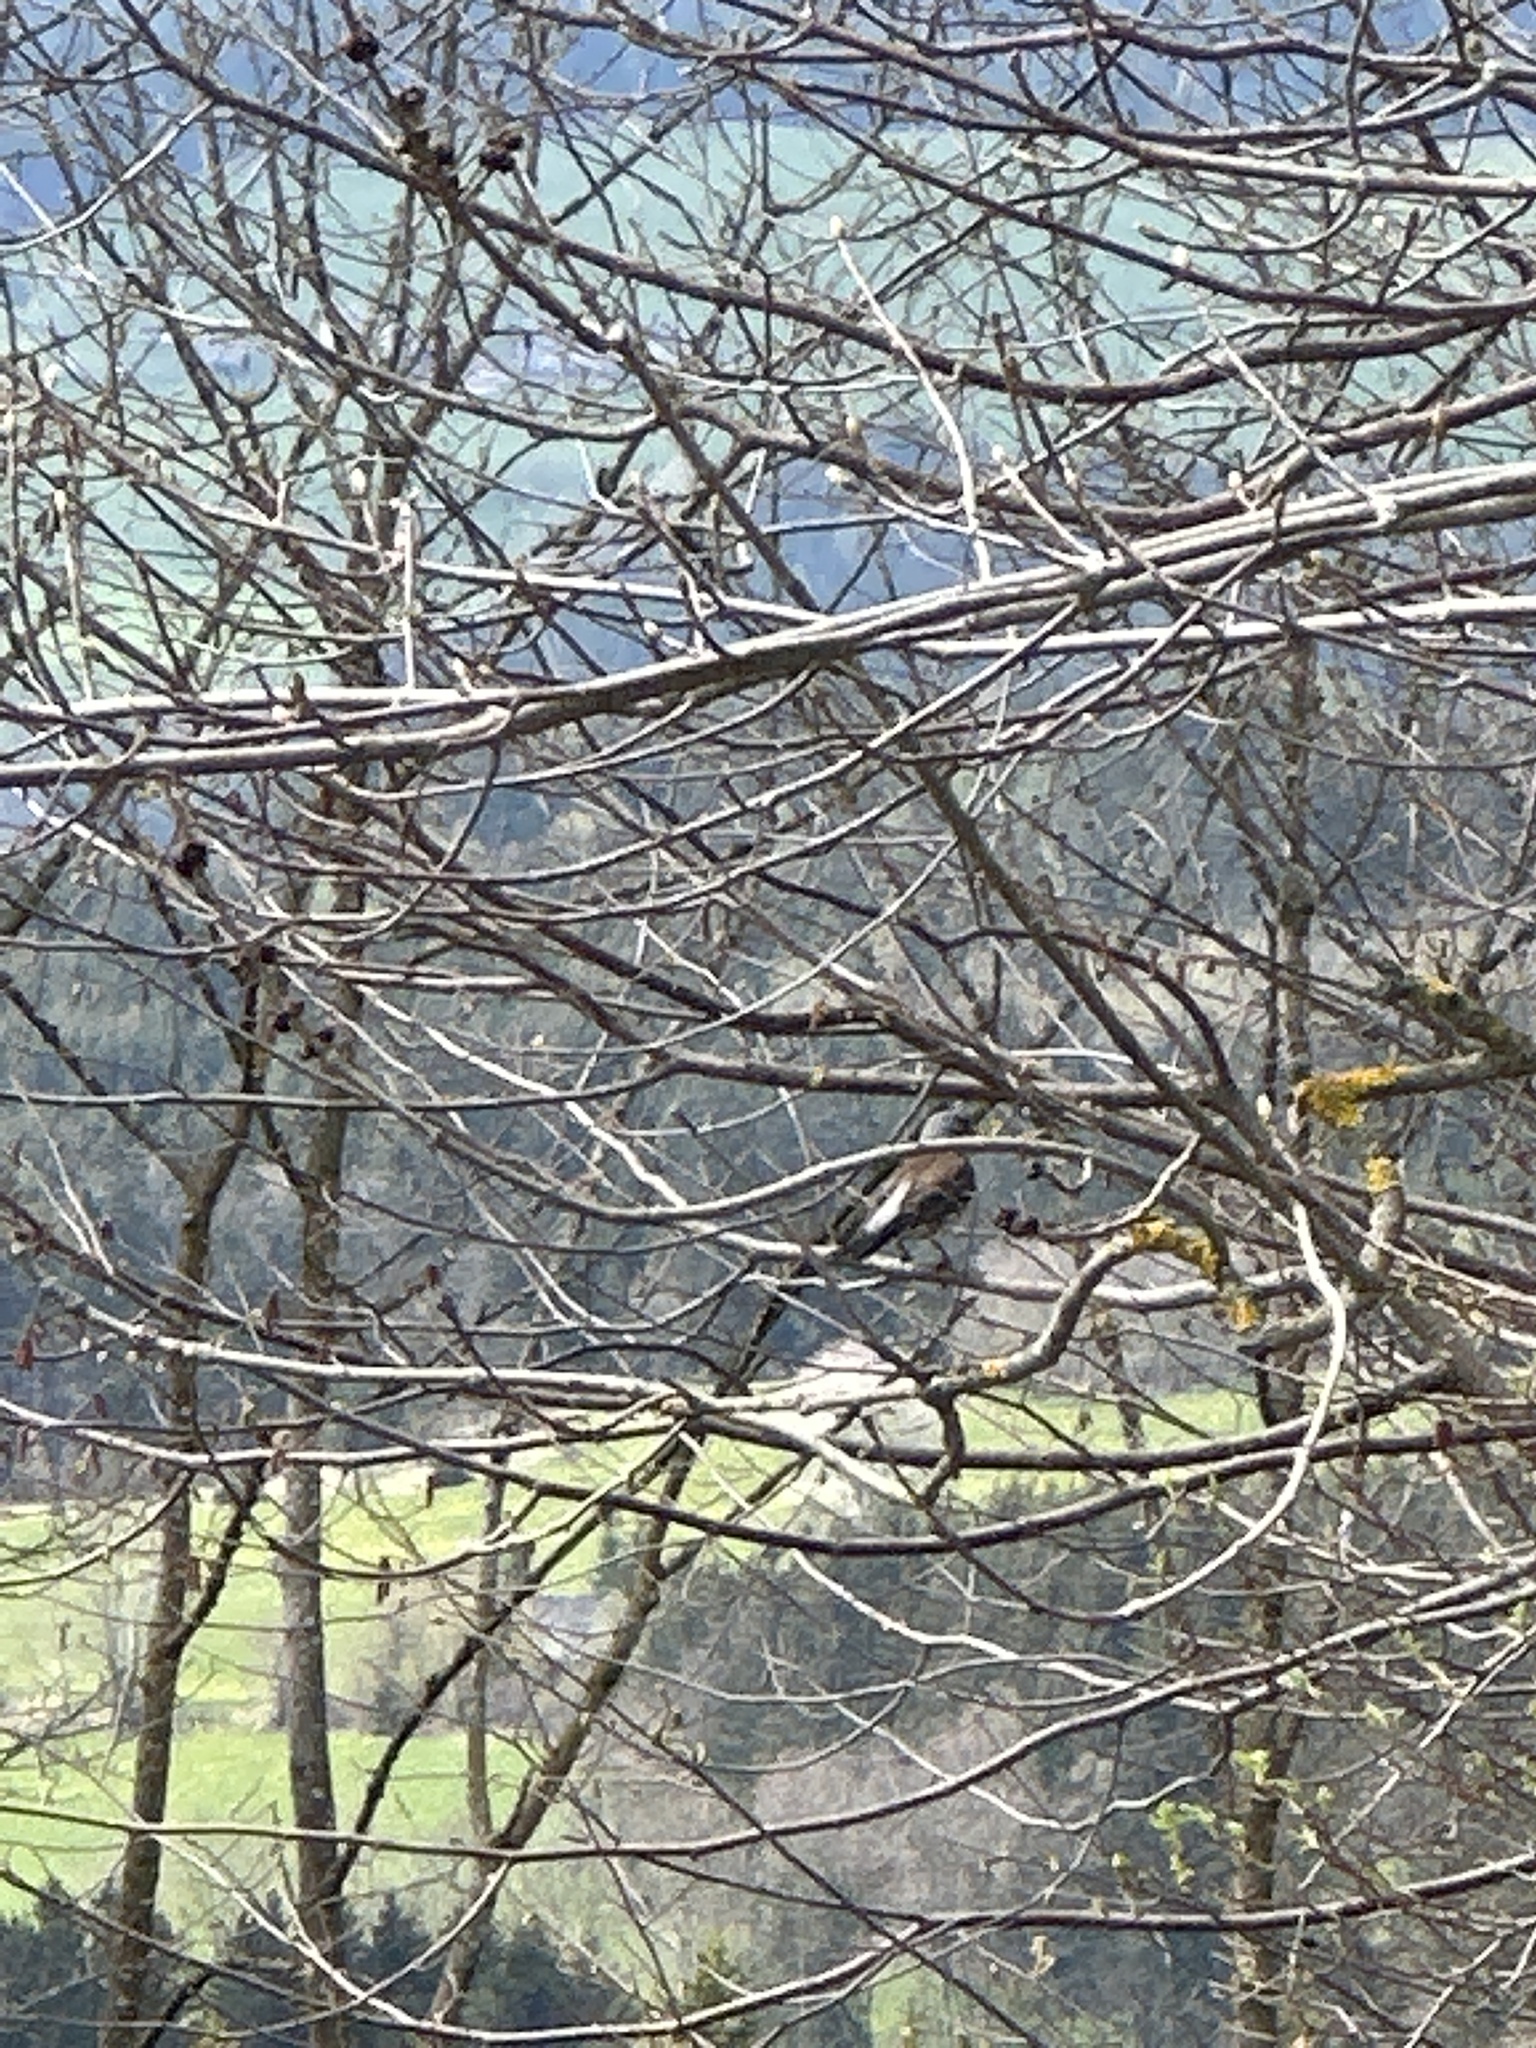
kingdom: Animalia
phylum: Chordata
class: Aves
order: Passeriformes
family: Turdidae
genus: Turdus
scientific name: Turdus pilaris
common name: Fieldfare
